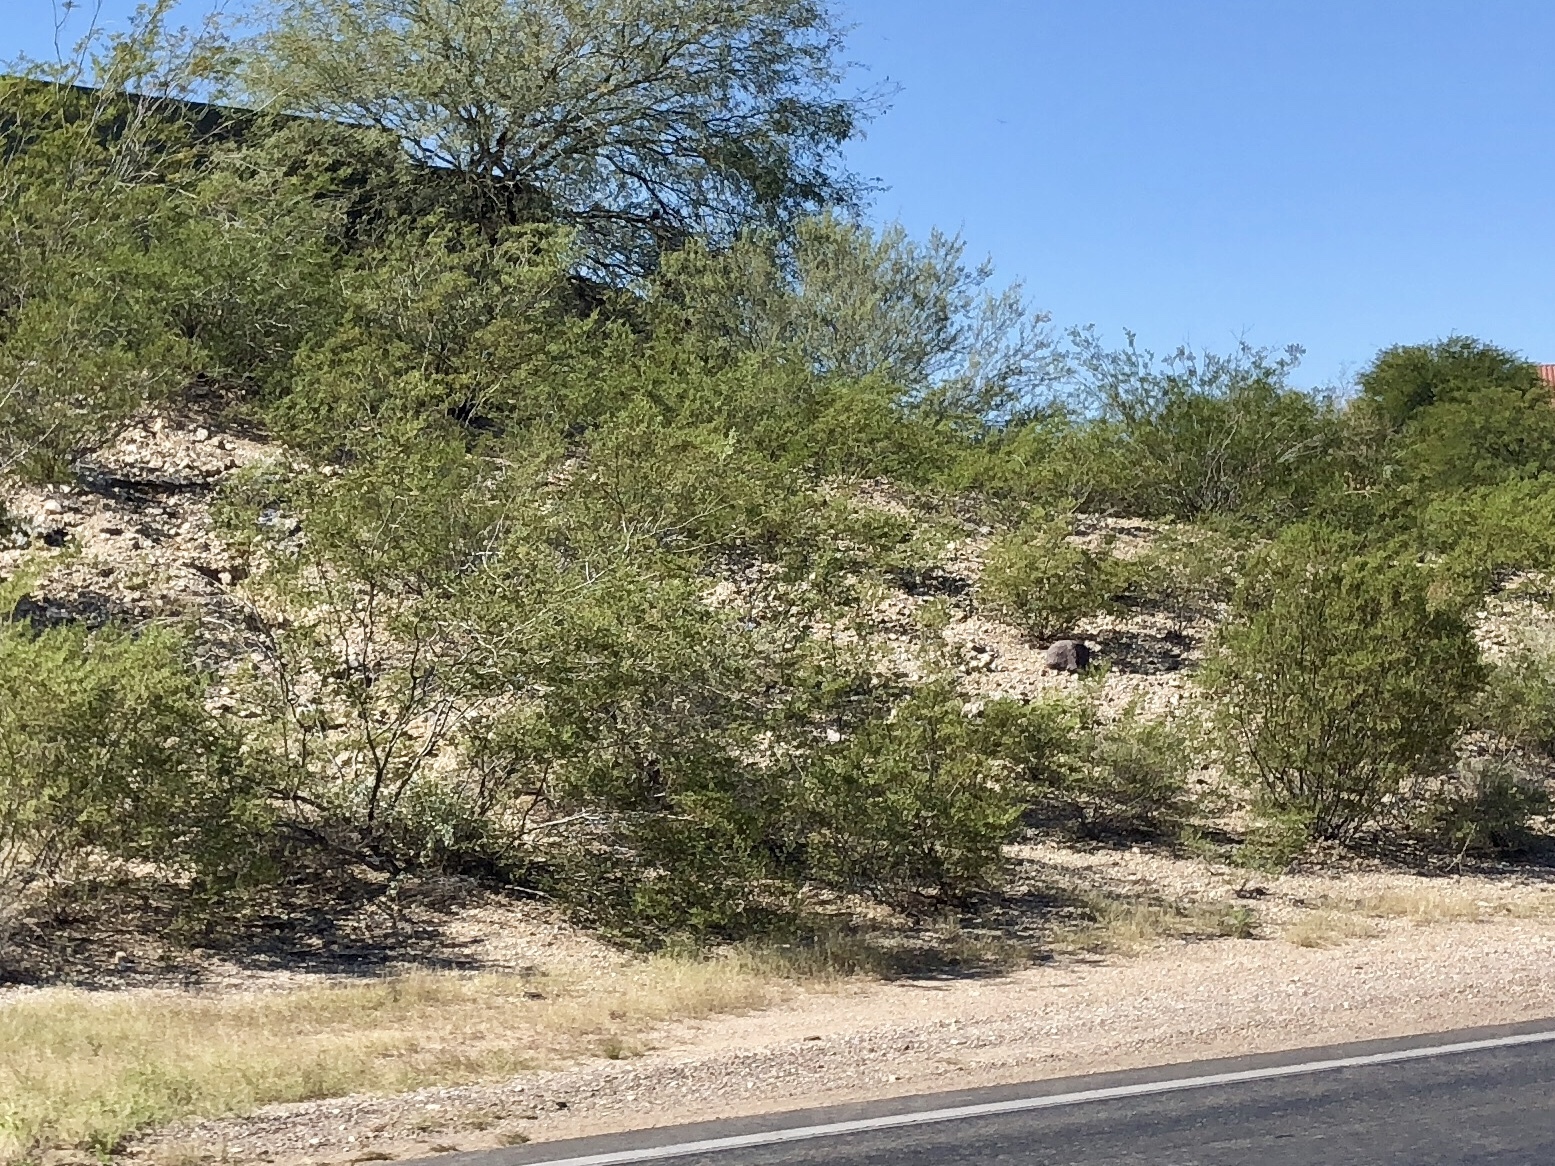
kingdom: Plantae
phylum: Tracheophyta
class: Magnoliopsida
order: Zygophyllales
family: Zygophyllaceae
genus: Larrea
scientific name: Larrea tridentata
